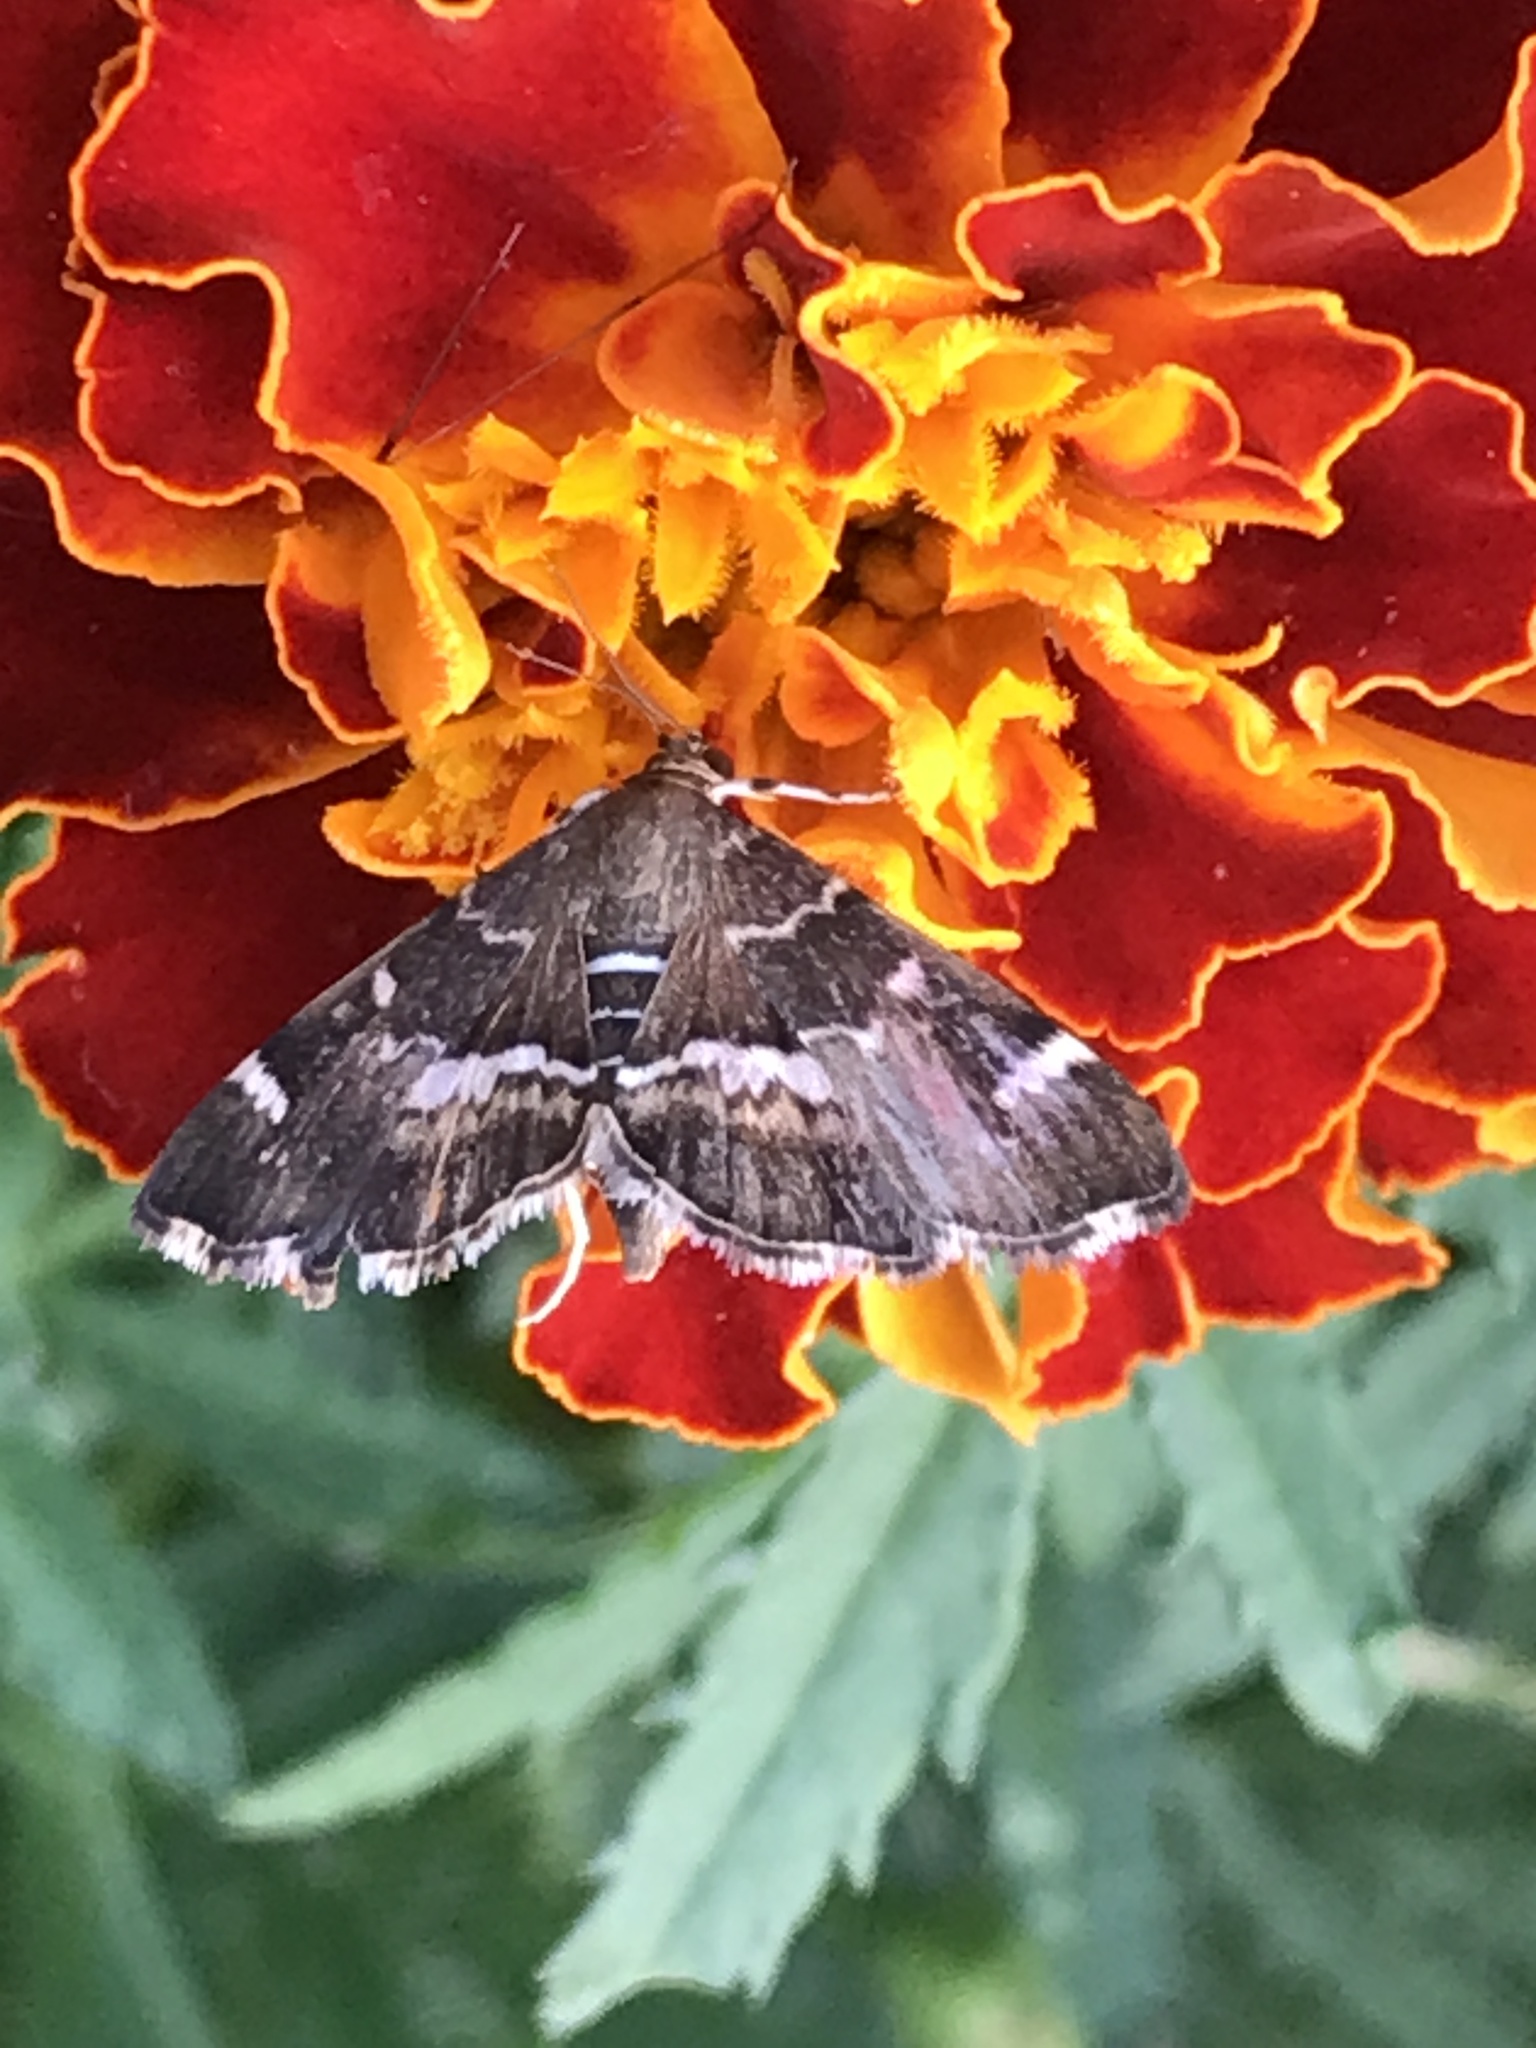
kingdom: Animalia
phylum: Arthropoda
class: Insecta
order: Lepidoptera
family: Crambidae
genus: Hymenia
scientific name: Hymenia perspectalis
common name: Spotted beet webworm
